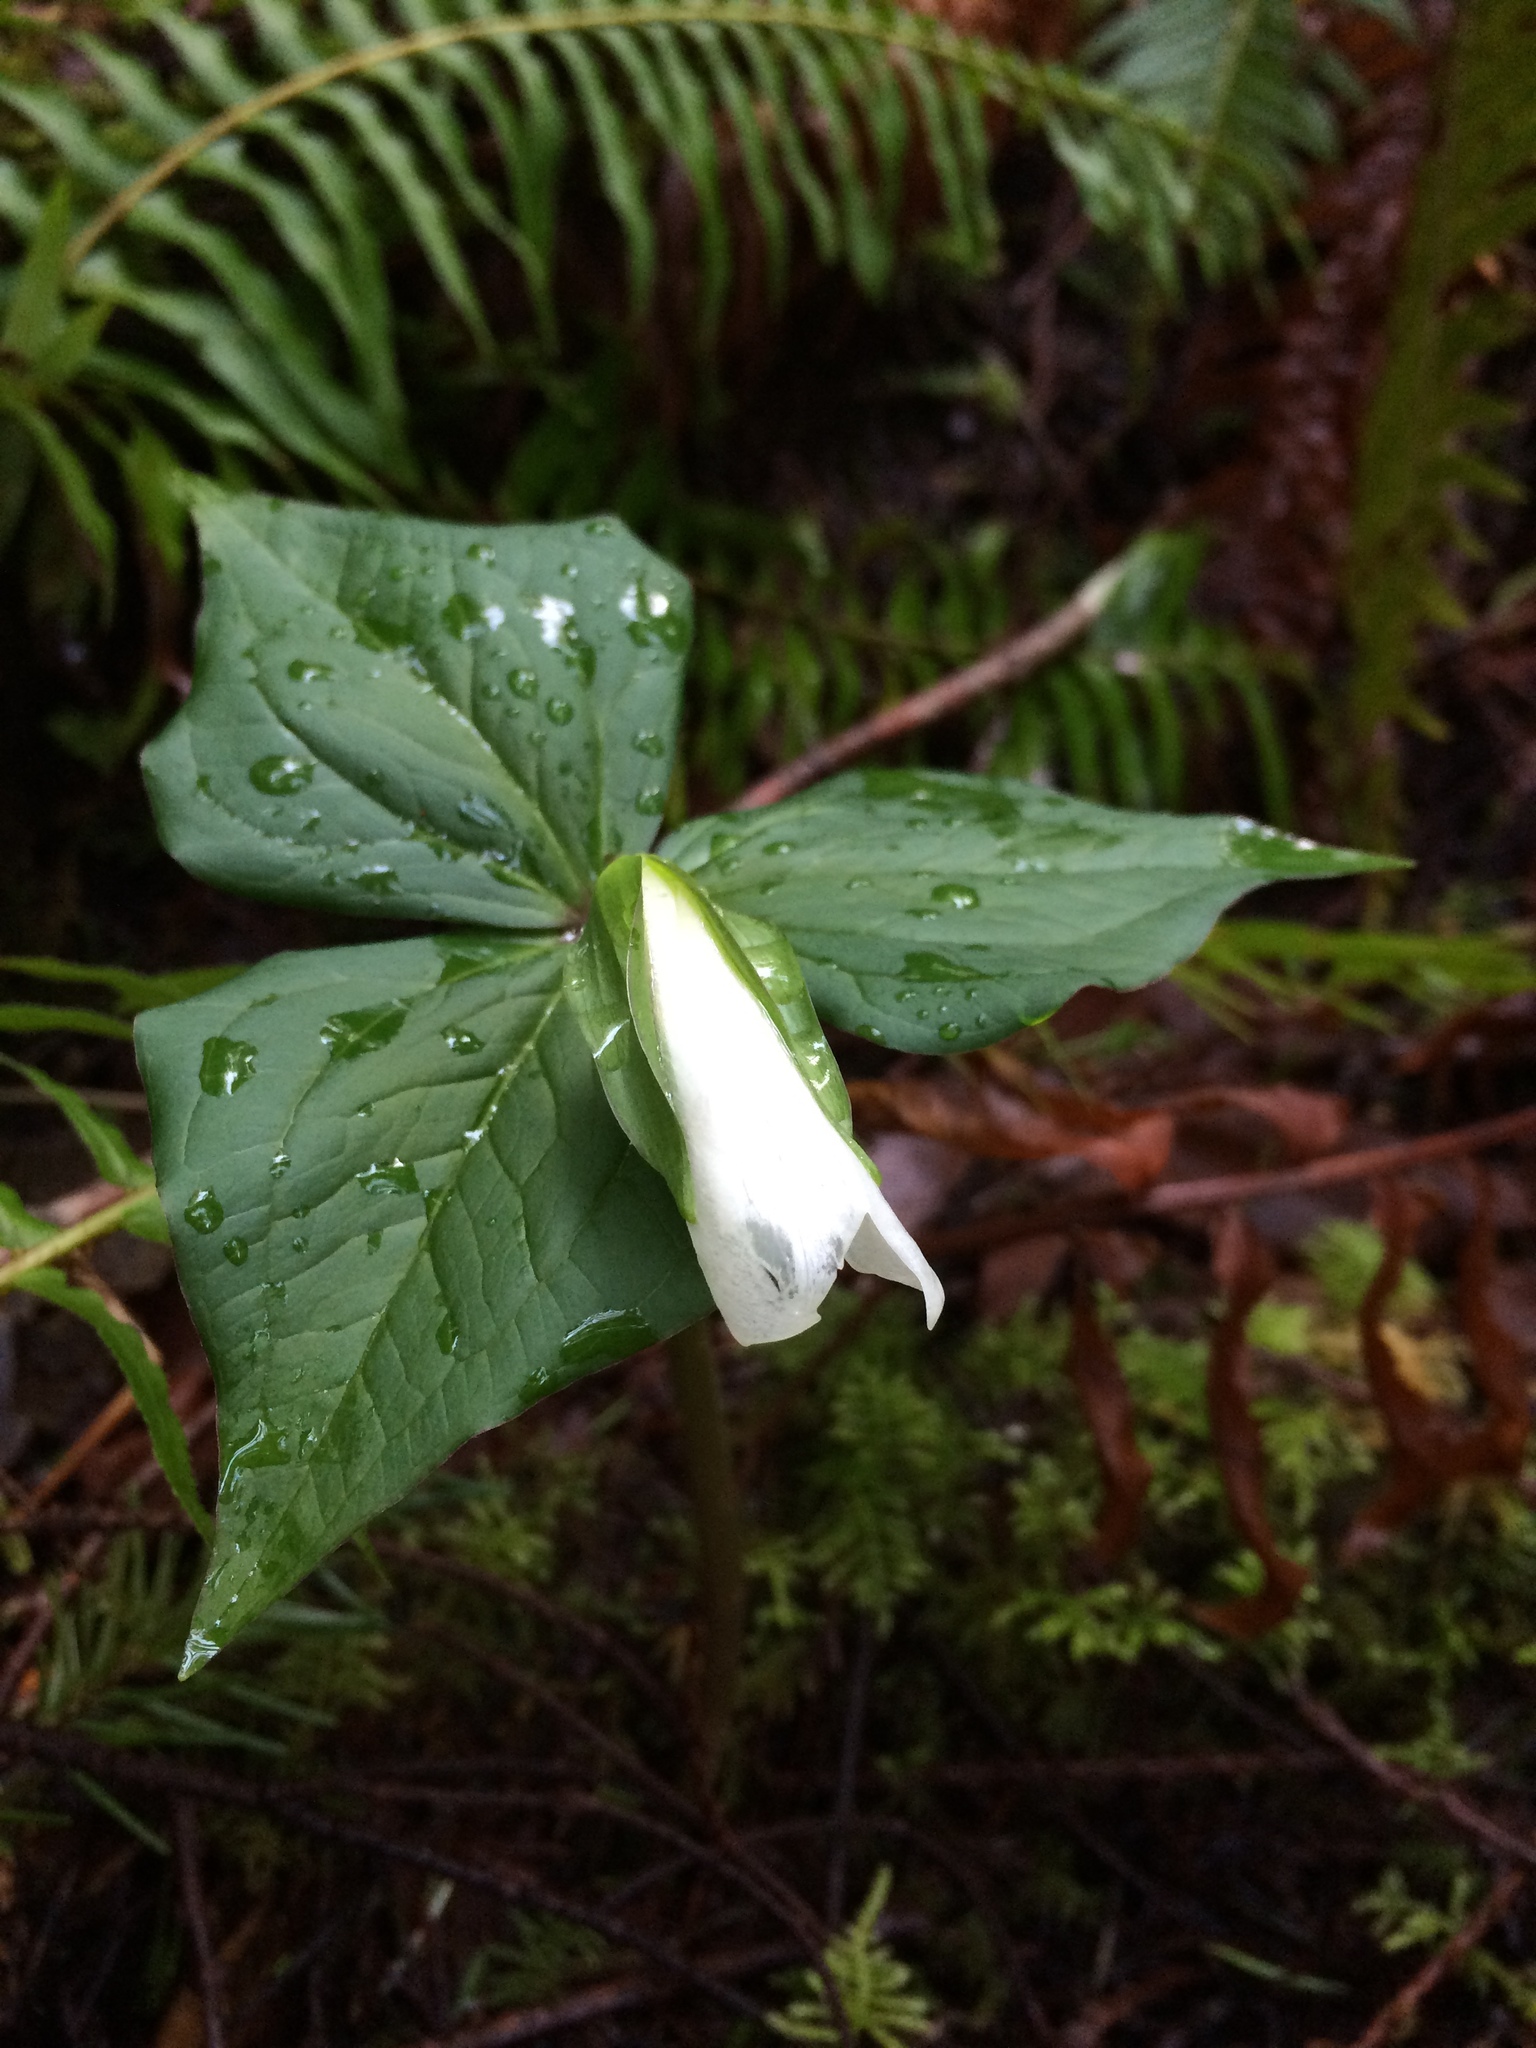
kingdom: Plantae
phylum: Tracheophyta
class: Liliopsida
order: Liliales
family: Melanthiaceae
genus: Trillium
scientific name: Trillium ovatum
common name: Pacific trillium
